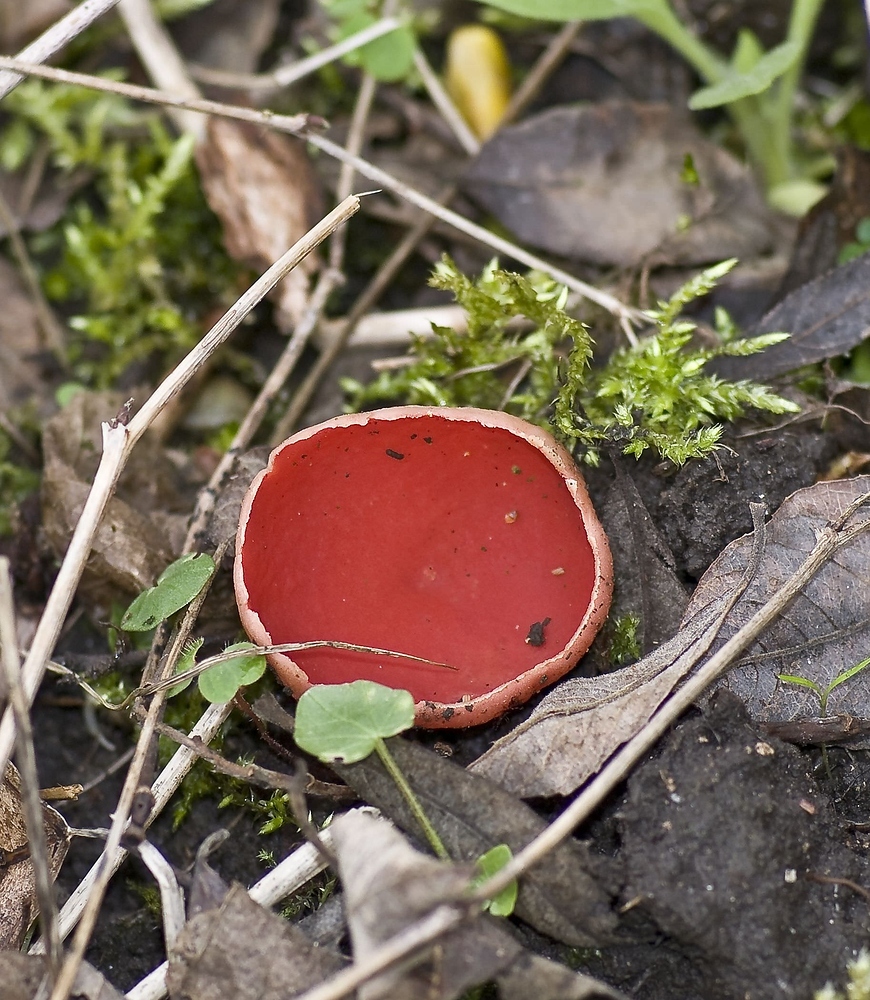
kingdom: Fungi
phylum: Ascomycota
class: Pezizomycetes
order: Pezizales
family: Sarcoscyphaceae
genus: Sarcoscypha
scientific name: Sarcoscypha
